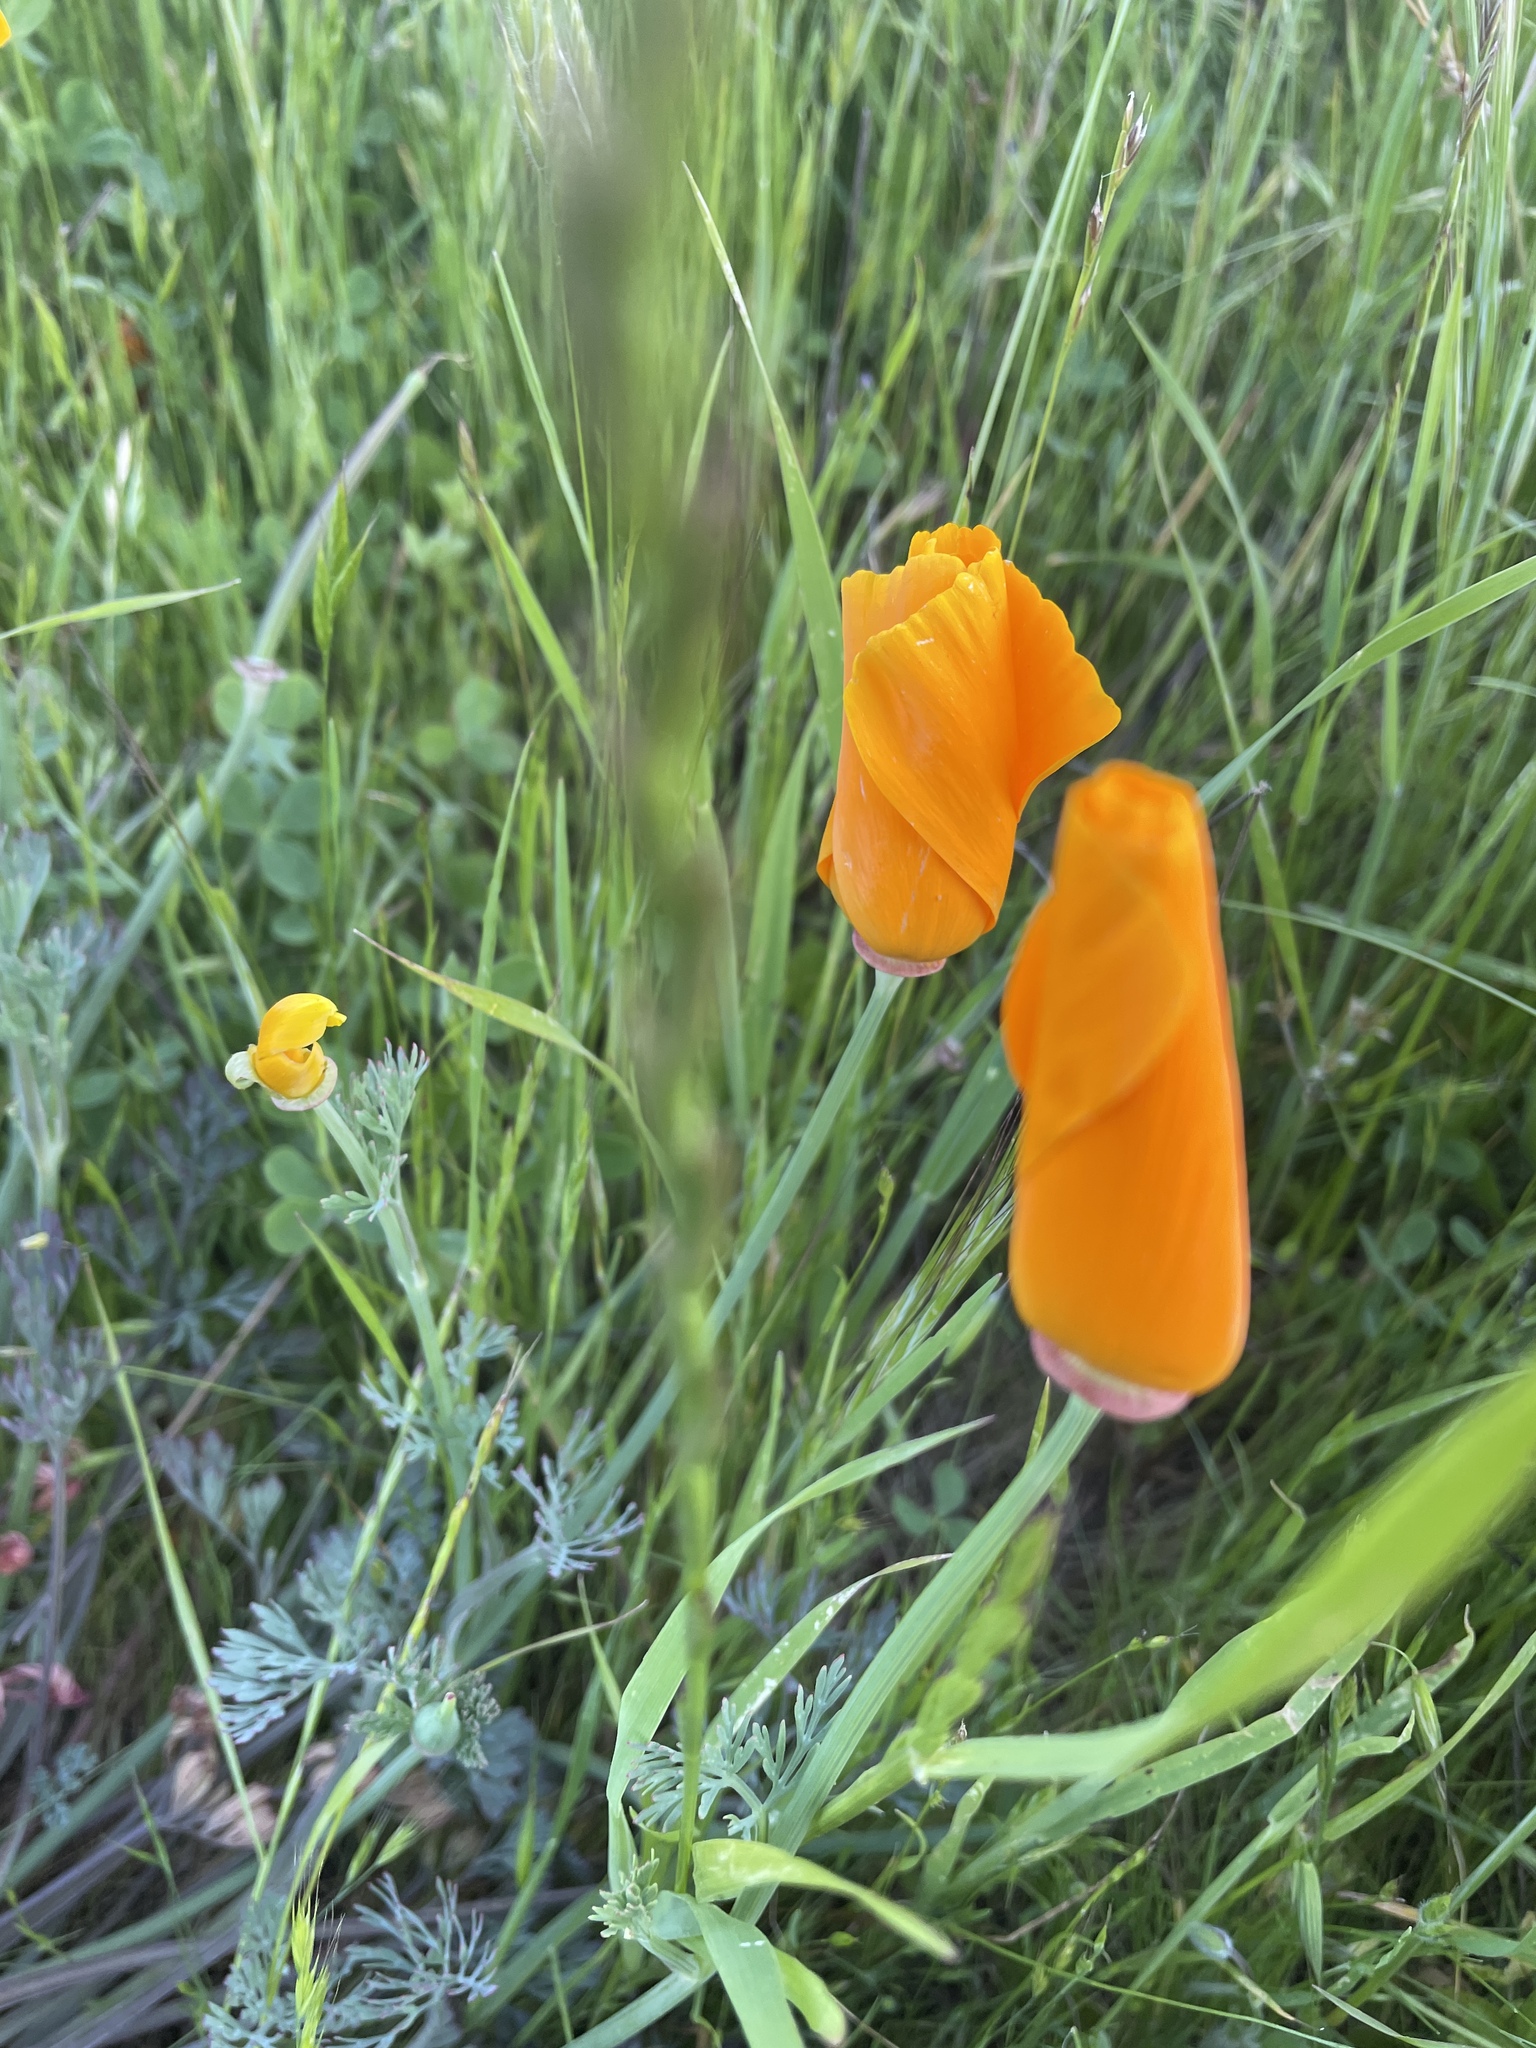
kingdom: Plantae
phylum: Tracheophyta
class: Magnoliopsida
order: Ranunculales
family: Papaveraceae
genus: Eschscholzia
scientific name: Eschscholzia californica
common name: California poppy
